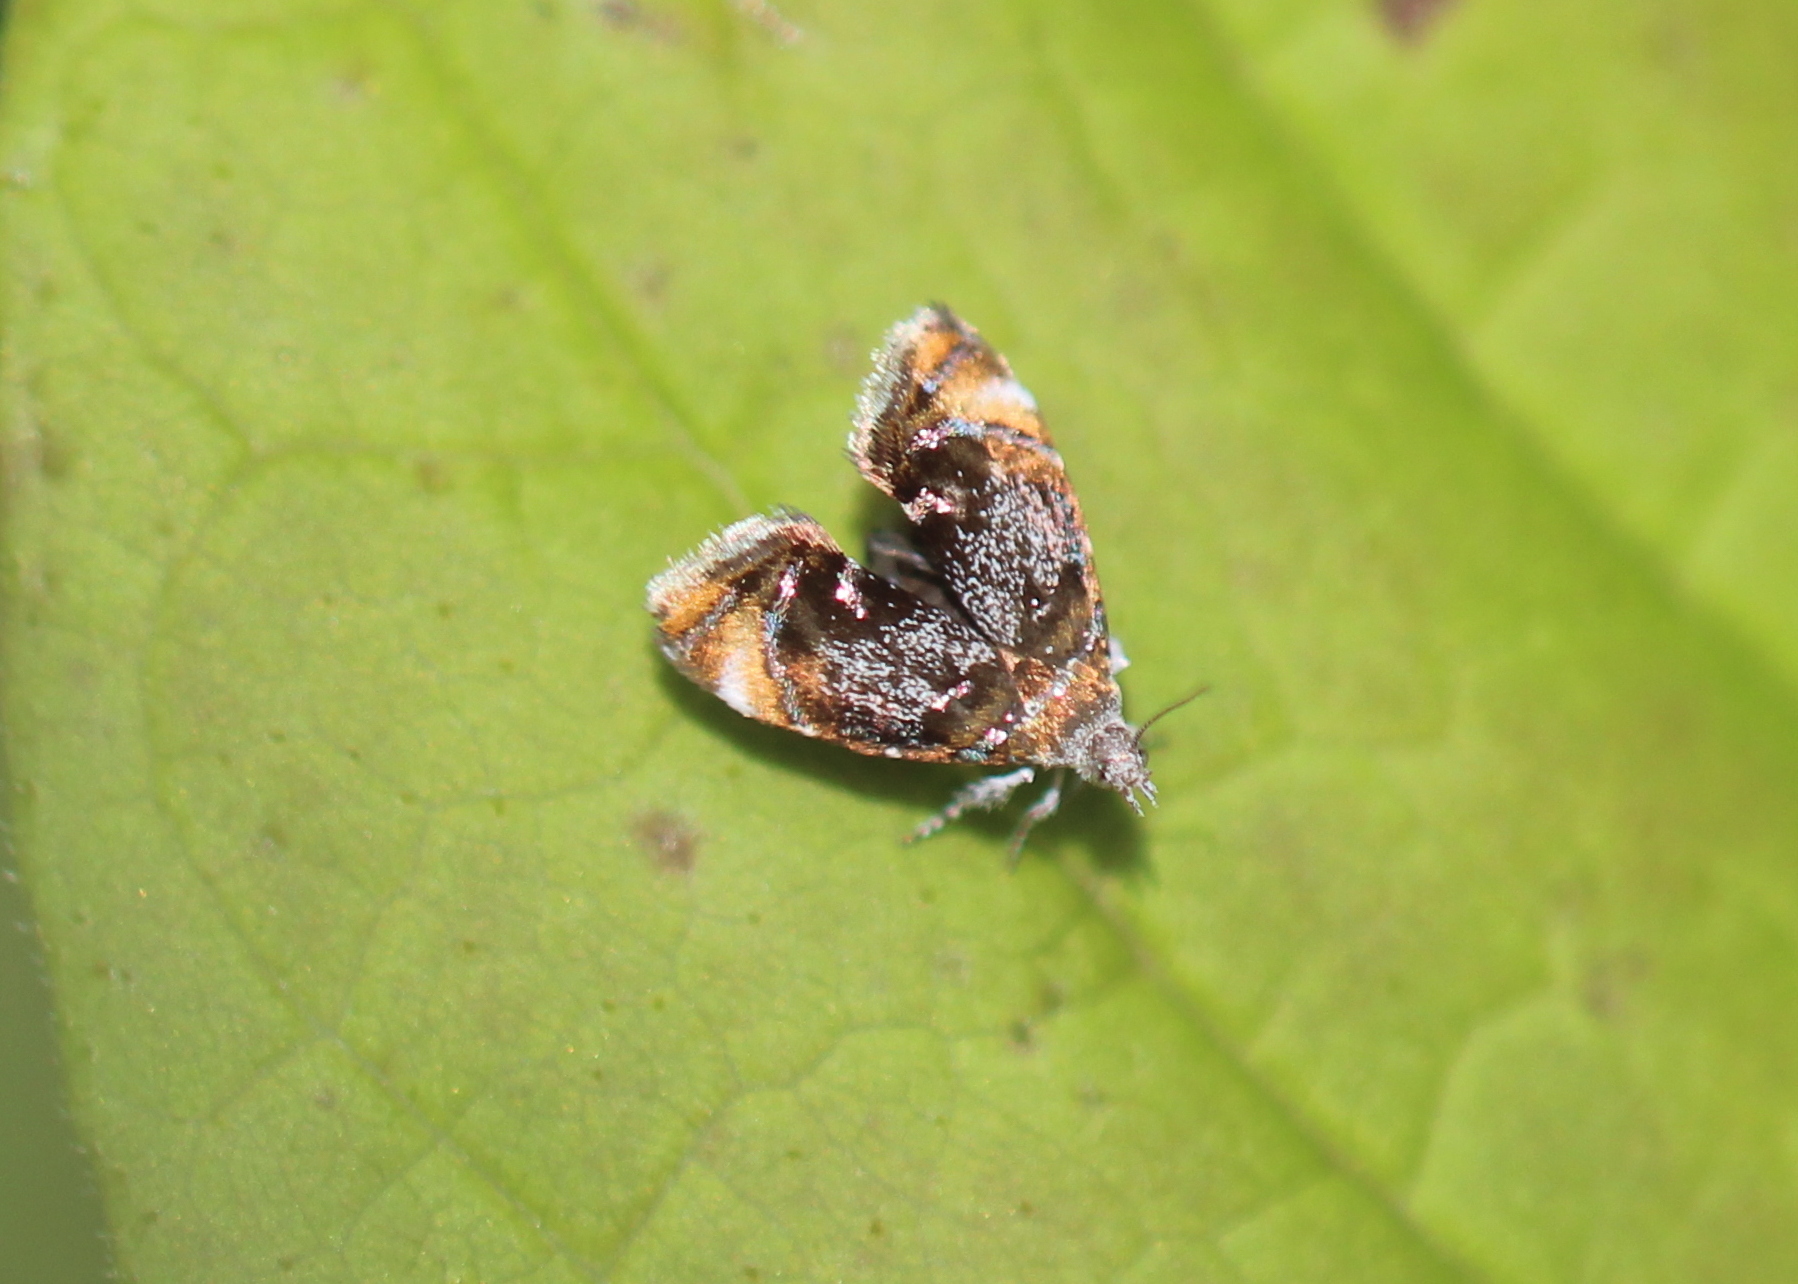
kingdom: Animalia
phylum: Arthropoda
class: Insecta
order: Lepidoptera
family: Choreutidae
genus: Prochoreutis
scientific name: Prochoreutis inflatella
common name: Skullcap skeletonizer moth
